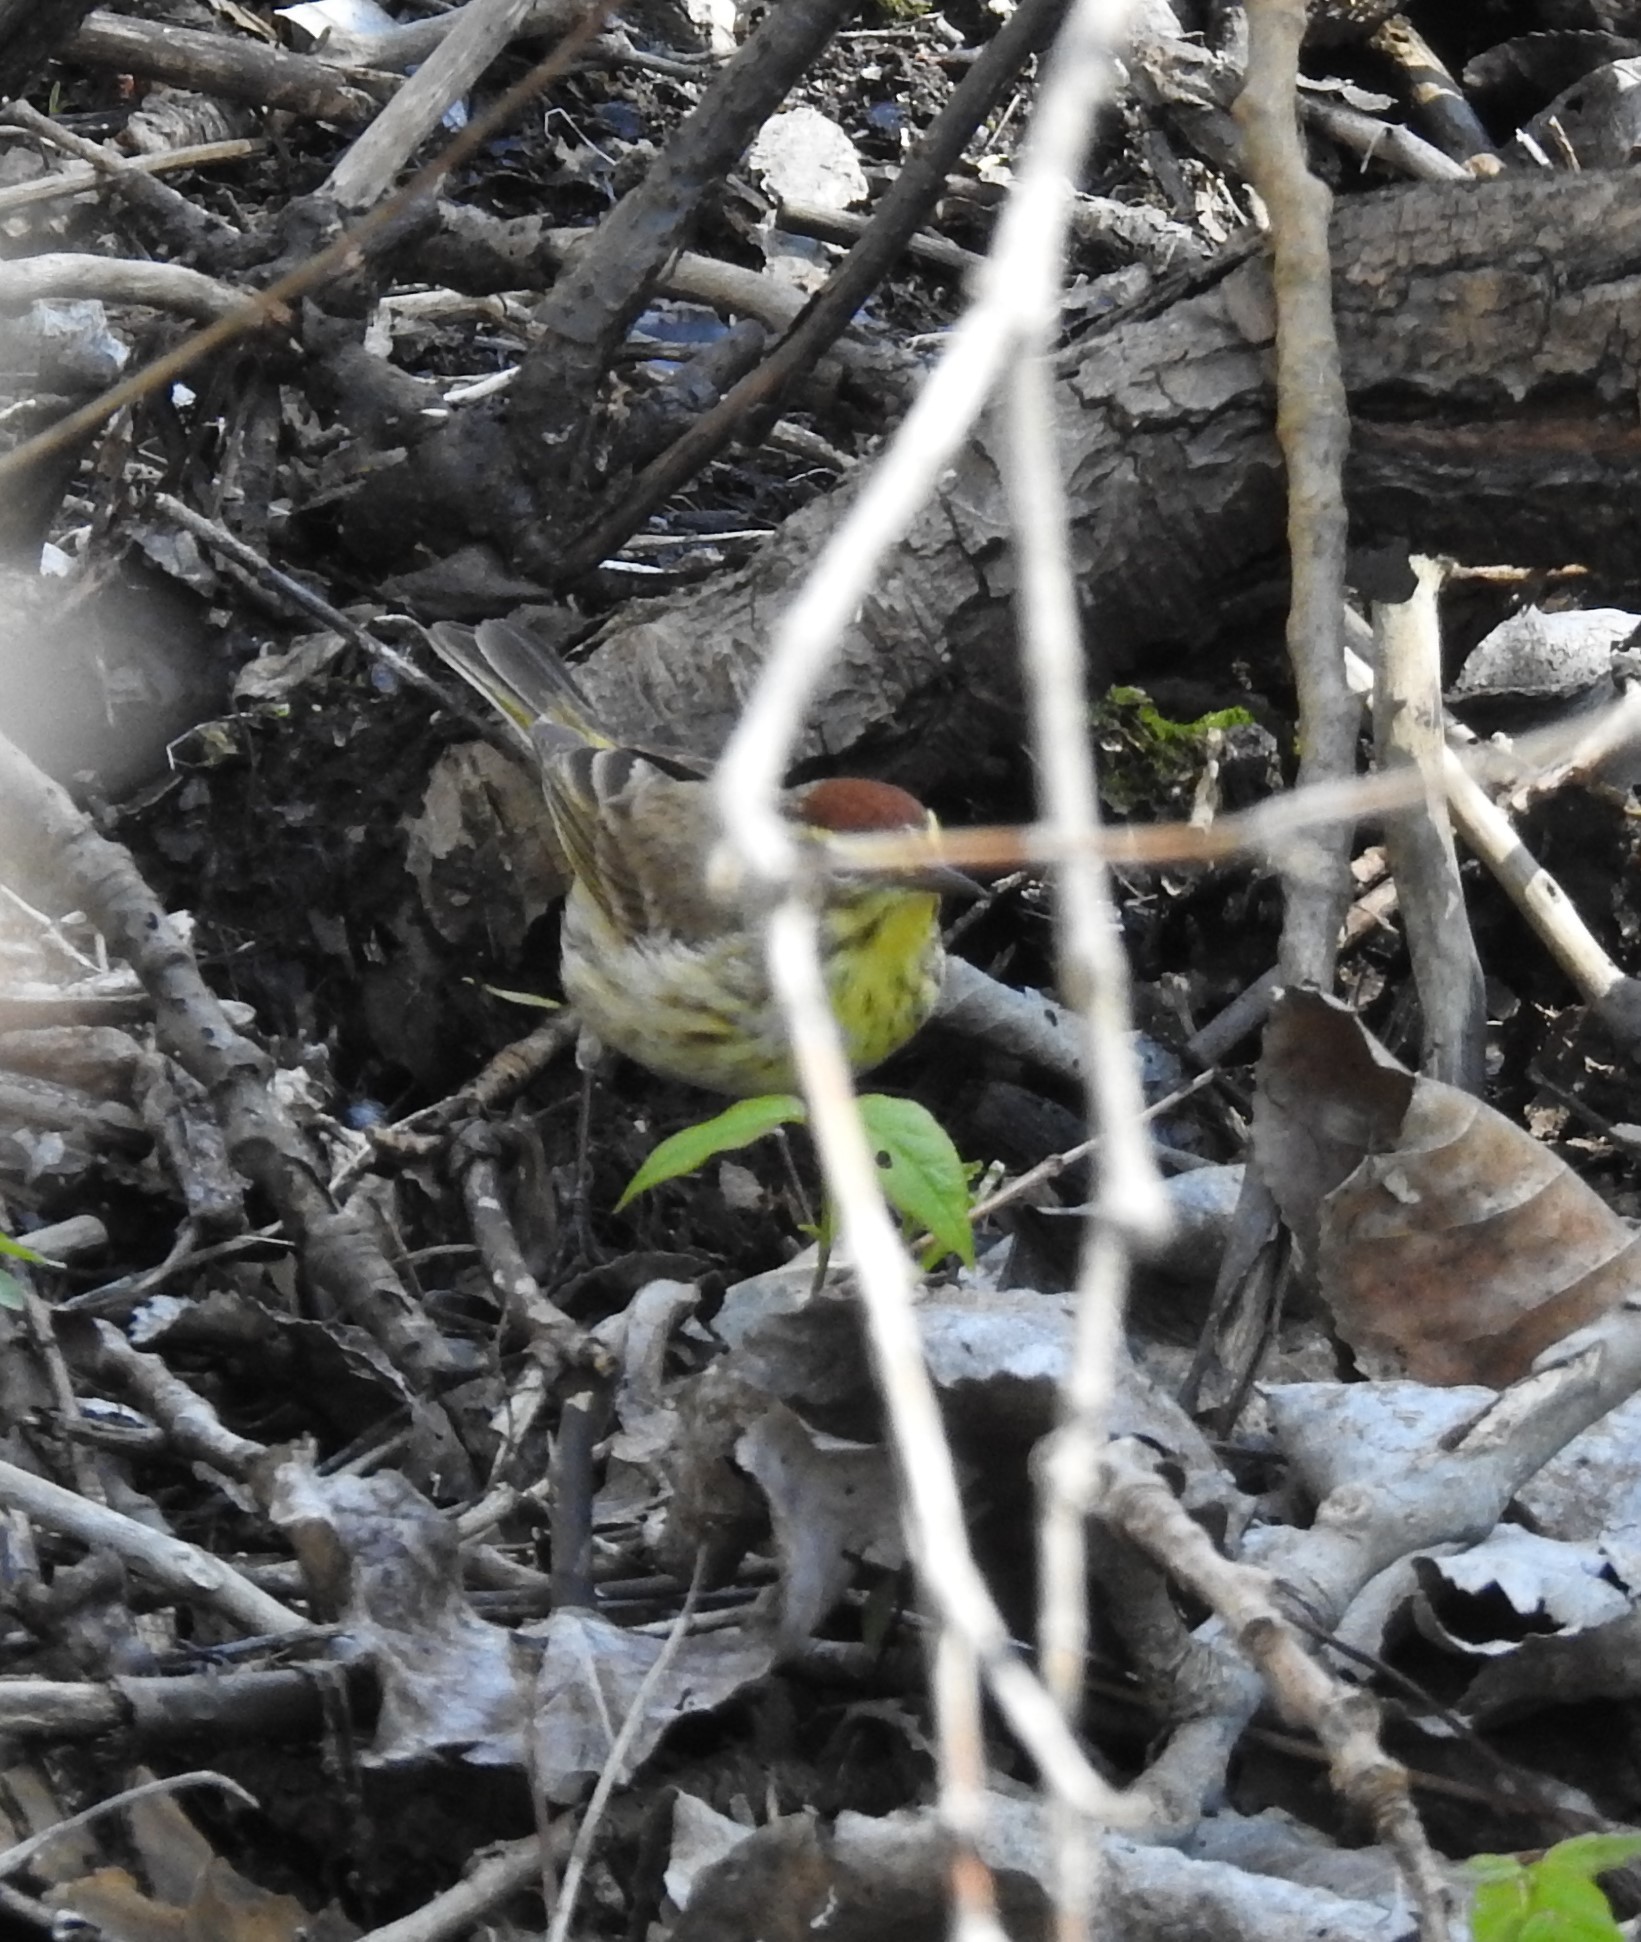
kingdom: Animalia
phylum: Chordata
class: Aves
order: Passeriformes
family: Parulidae
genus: Setophaga
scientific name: Setophaga palmarum
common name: Palm warbler
